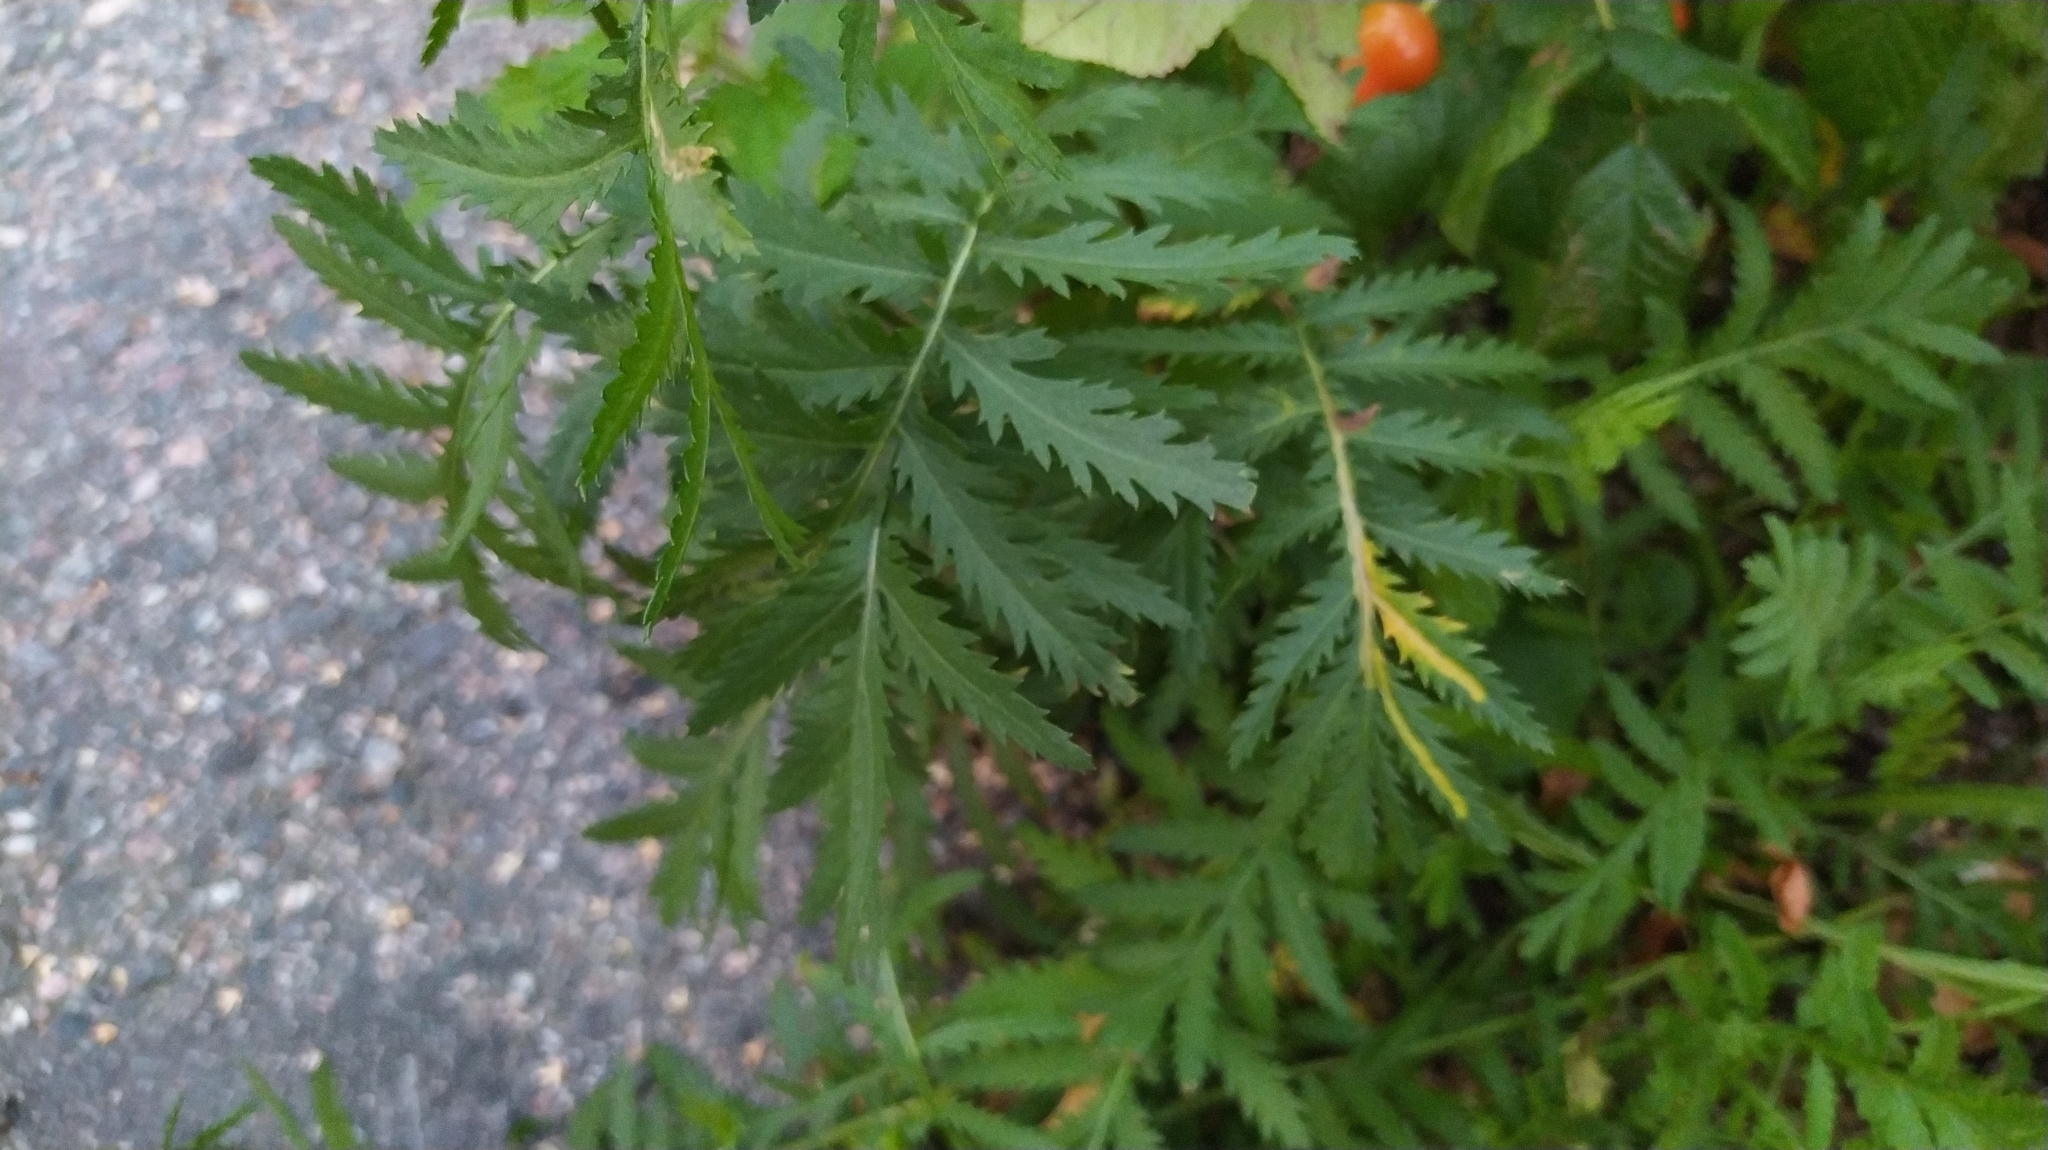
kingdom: Plantae
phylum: Tracheophyta
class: Magnoliopsida
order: Asterales
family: Asteraceae
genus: Tanacetum
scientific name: Tanacetum vulgare
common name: Common tansy
